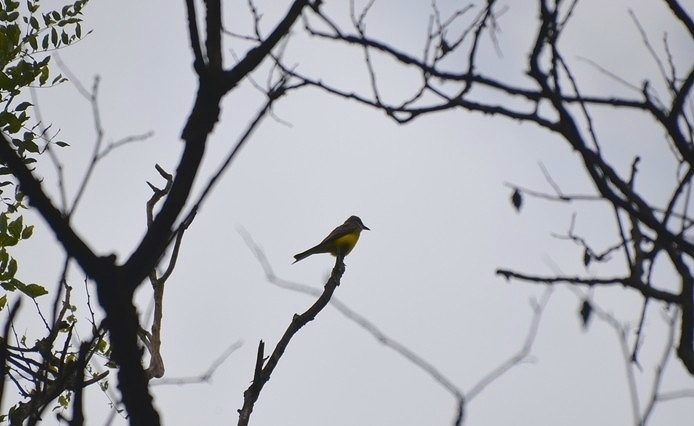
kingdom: Animalia
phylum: Chordata
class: Aves
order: Passeriformes
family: Tyrannidae
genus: Tyrannus
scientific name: Tyrannus melancholicus
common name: Tropical kingbird
